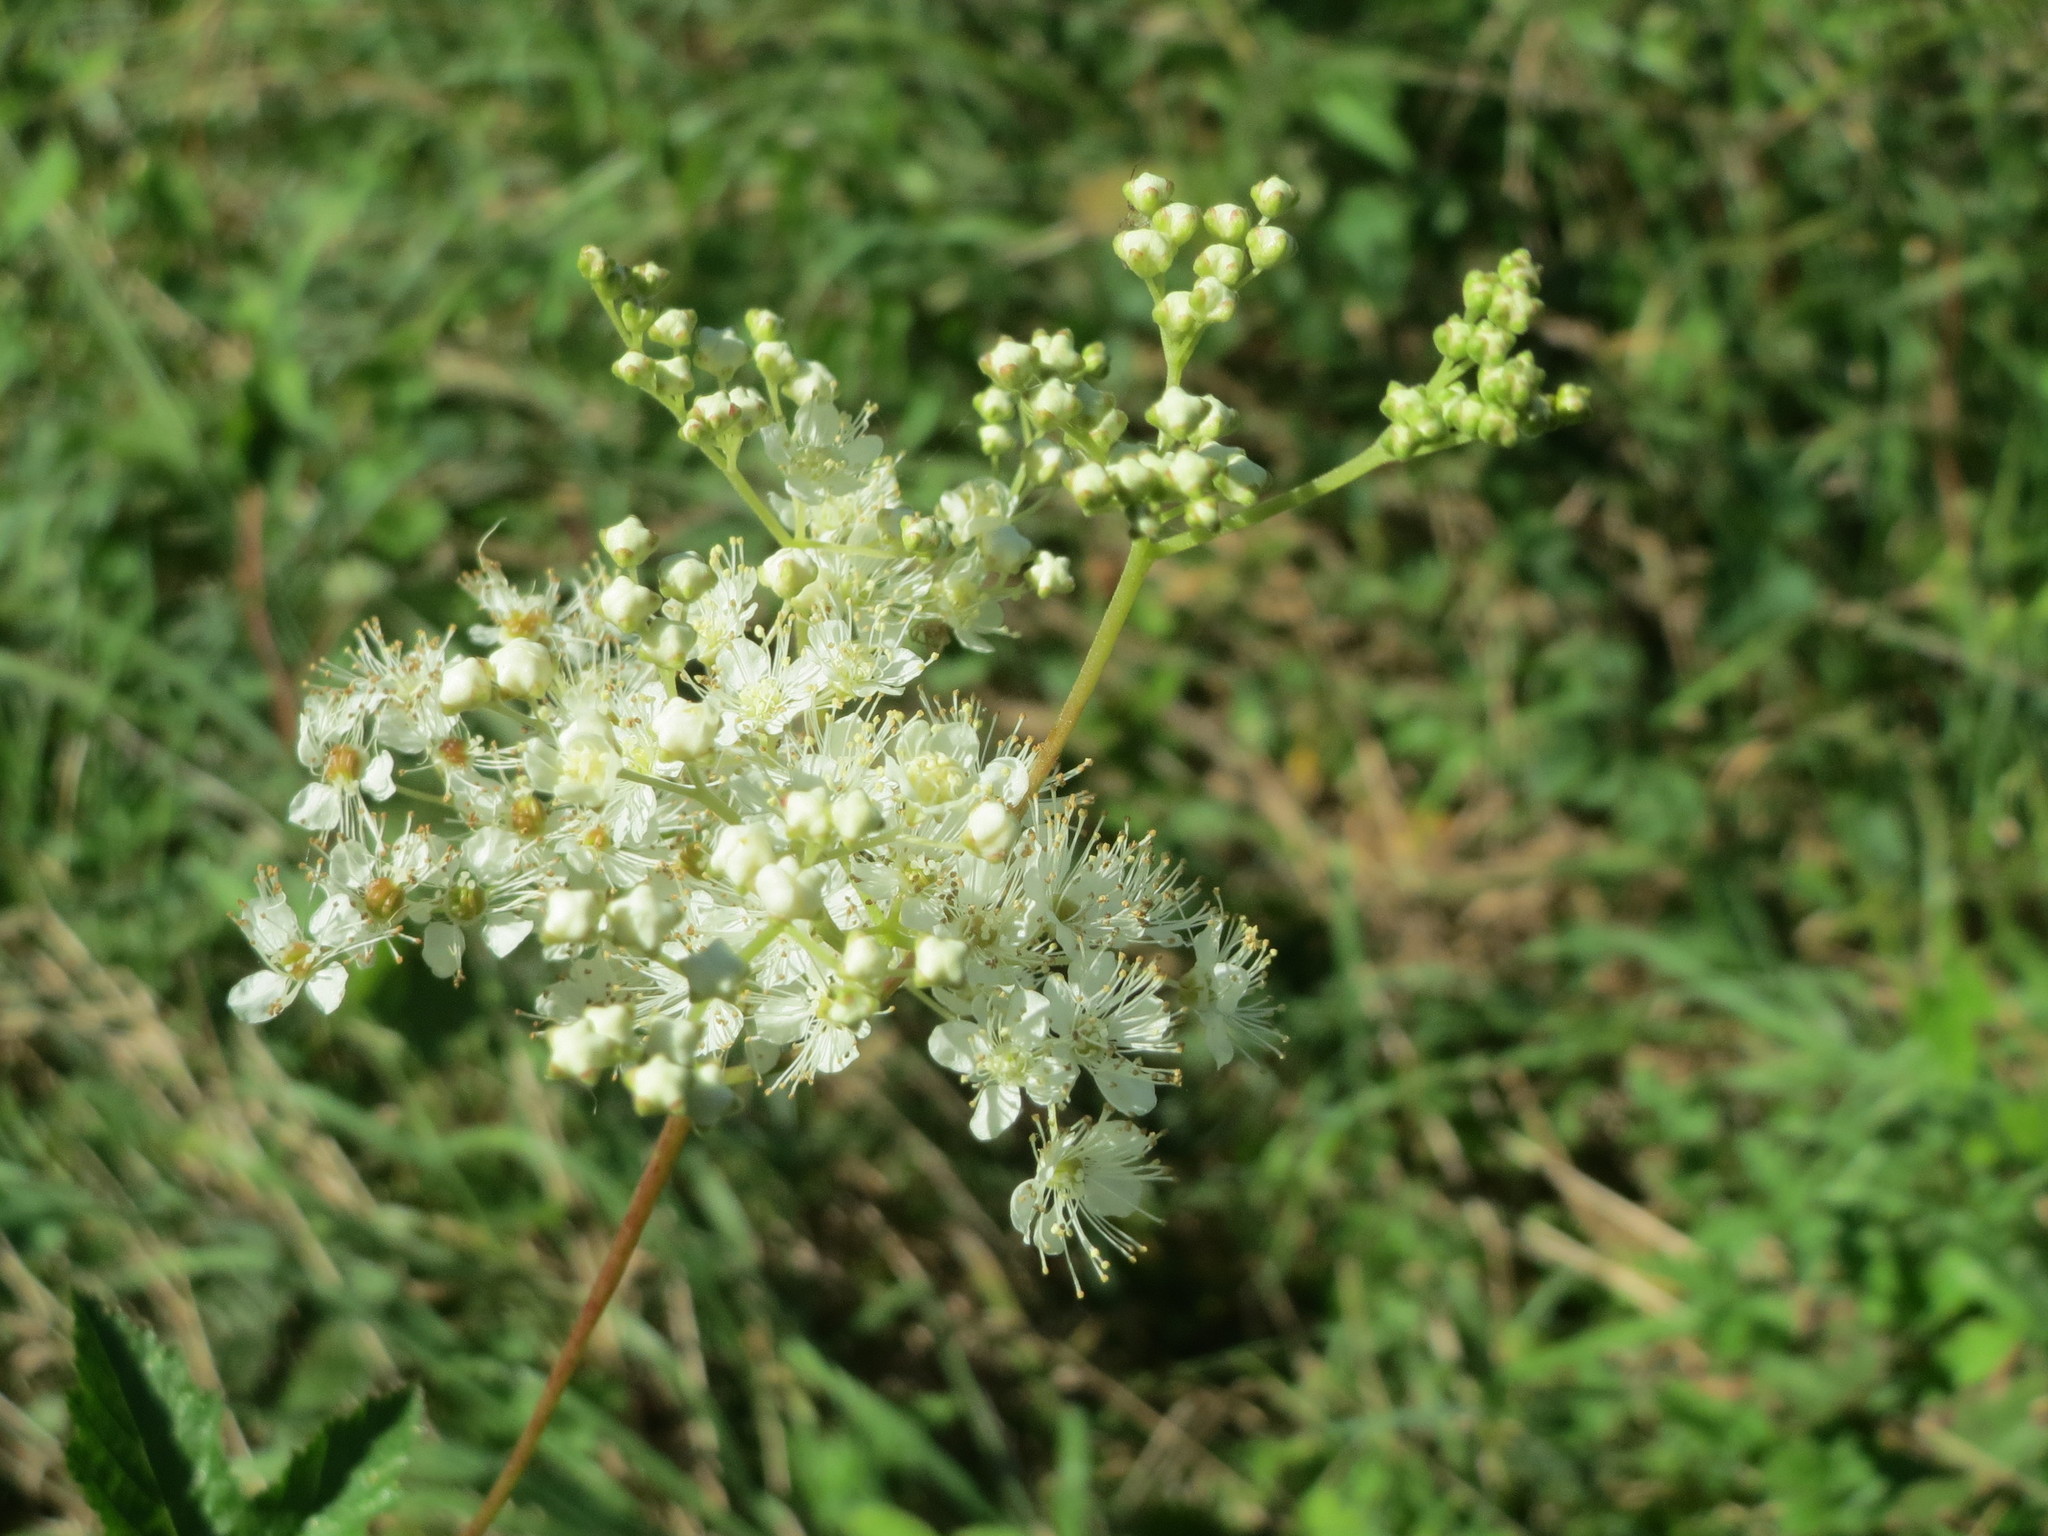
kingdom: Plantae
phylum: Tracheophyta
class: Magnoliopsida
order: Rosales
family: Rosaceae
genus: Filipendula
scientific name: Filipendula ulmaria
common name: Meadowsweet
